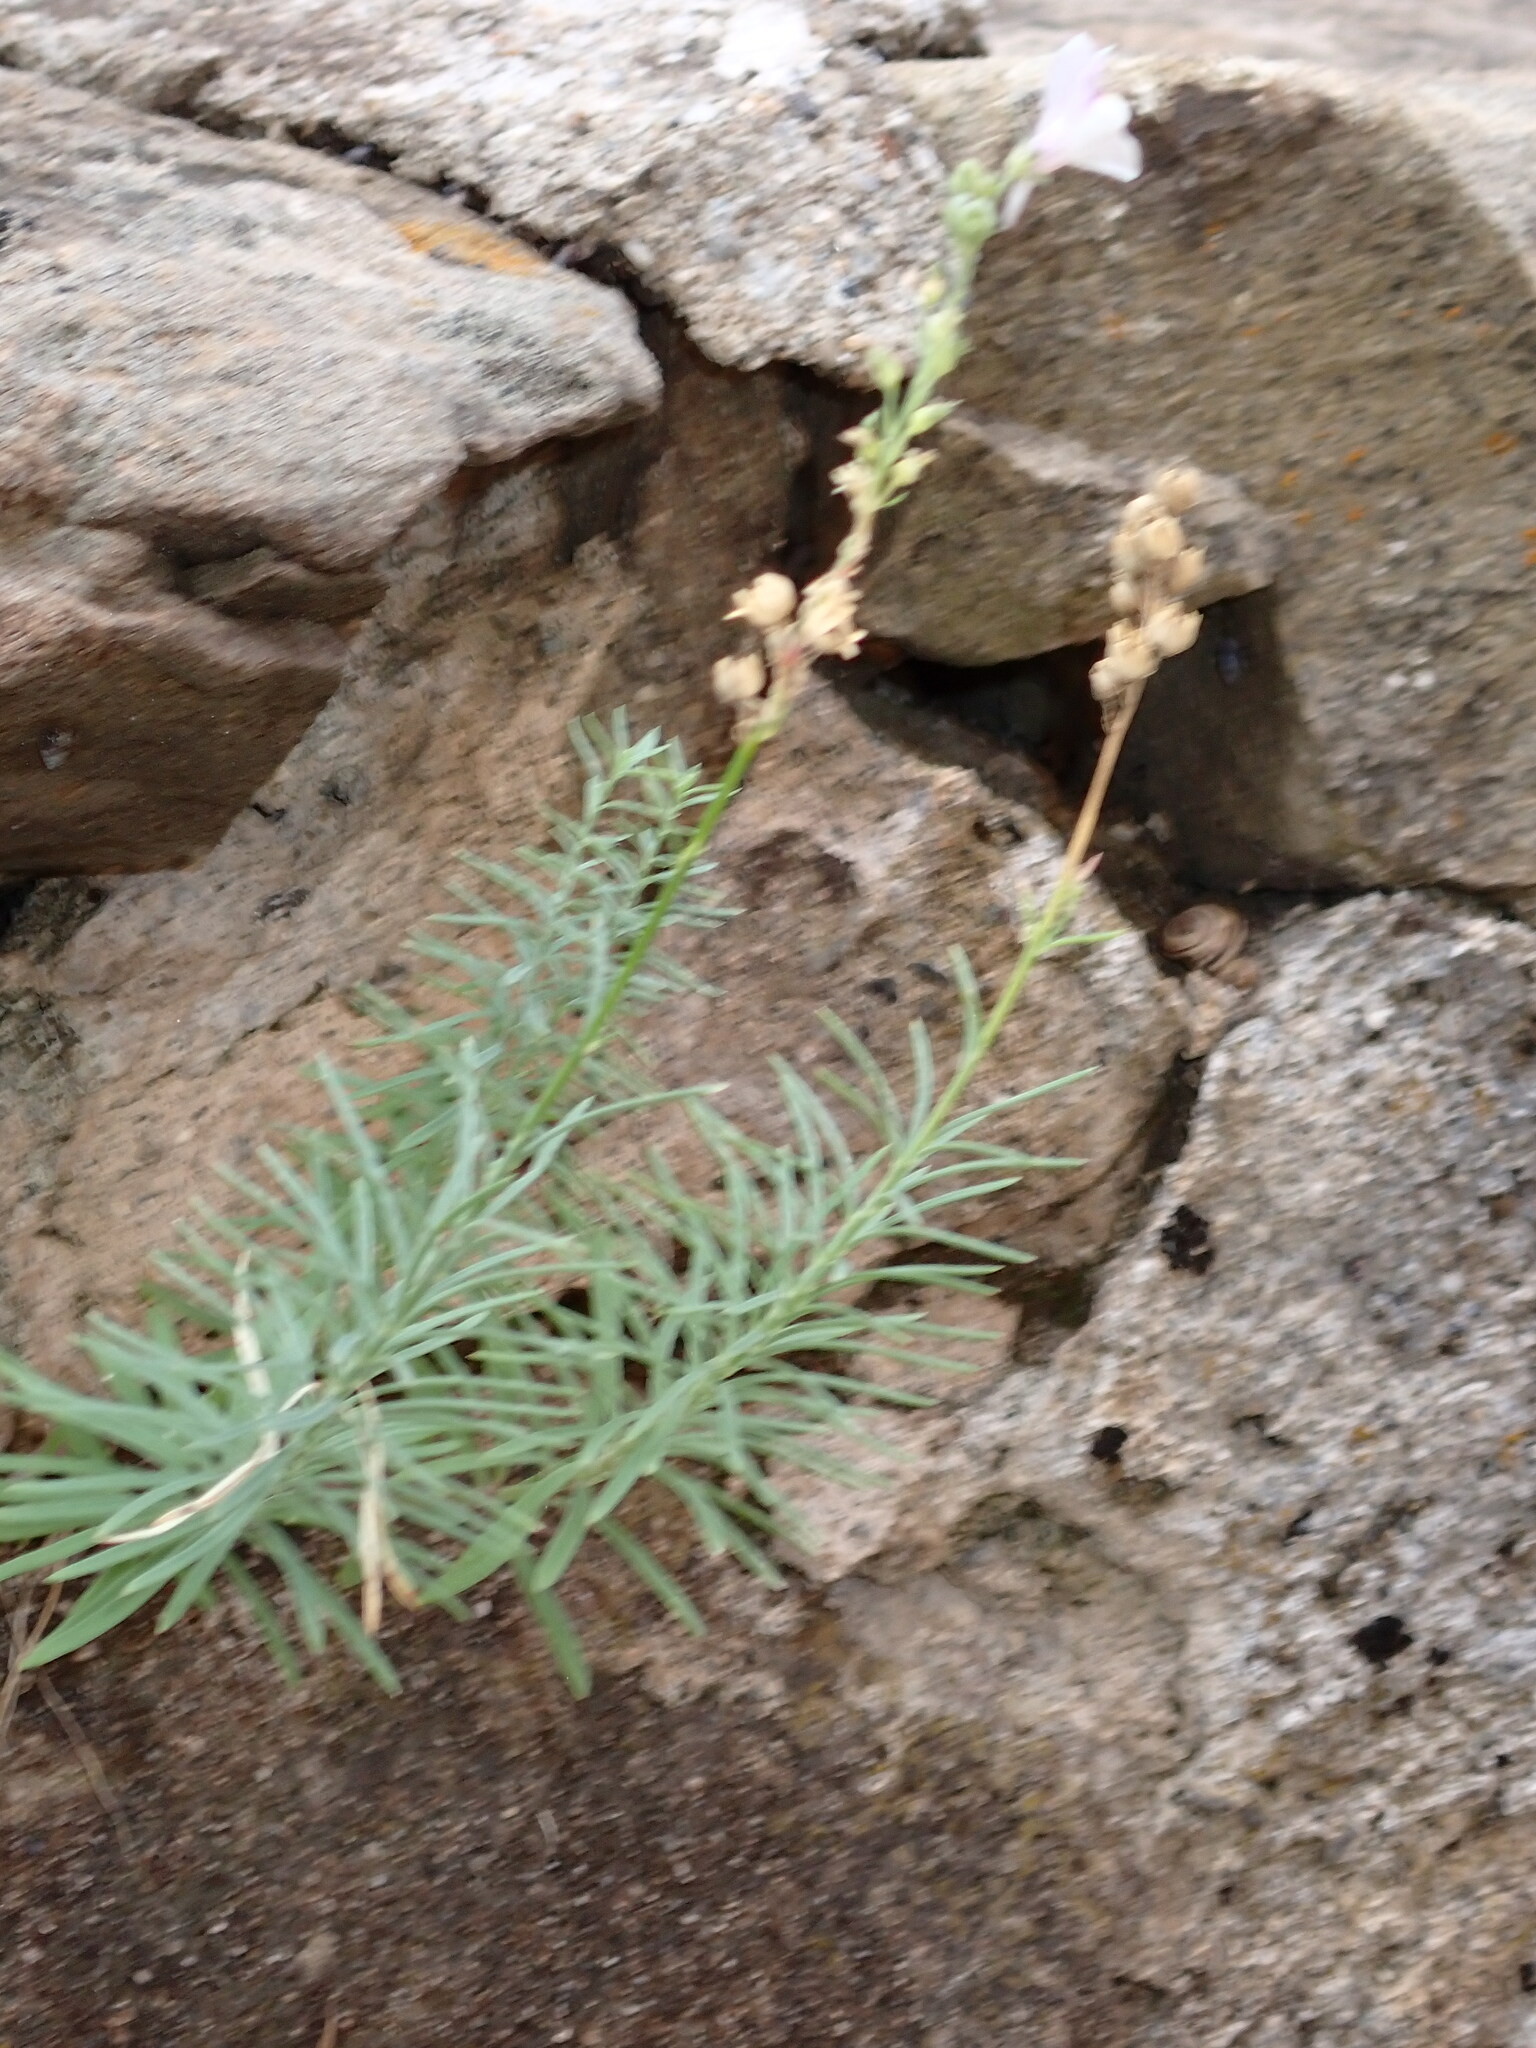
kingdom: Plantae
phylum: Tracheophyta
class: Magnoliopsida
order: Lamiales
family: Plantaginaceae
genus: Linaria
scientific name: Linaria repens
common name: Pale toadflax
